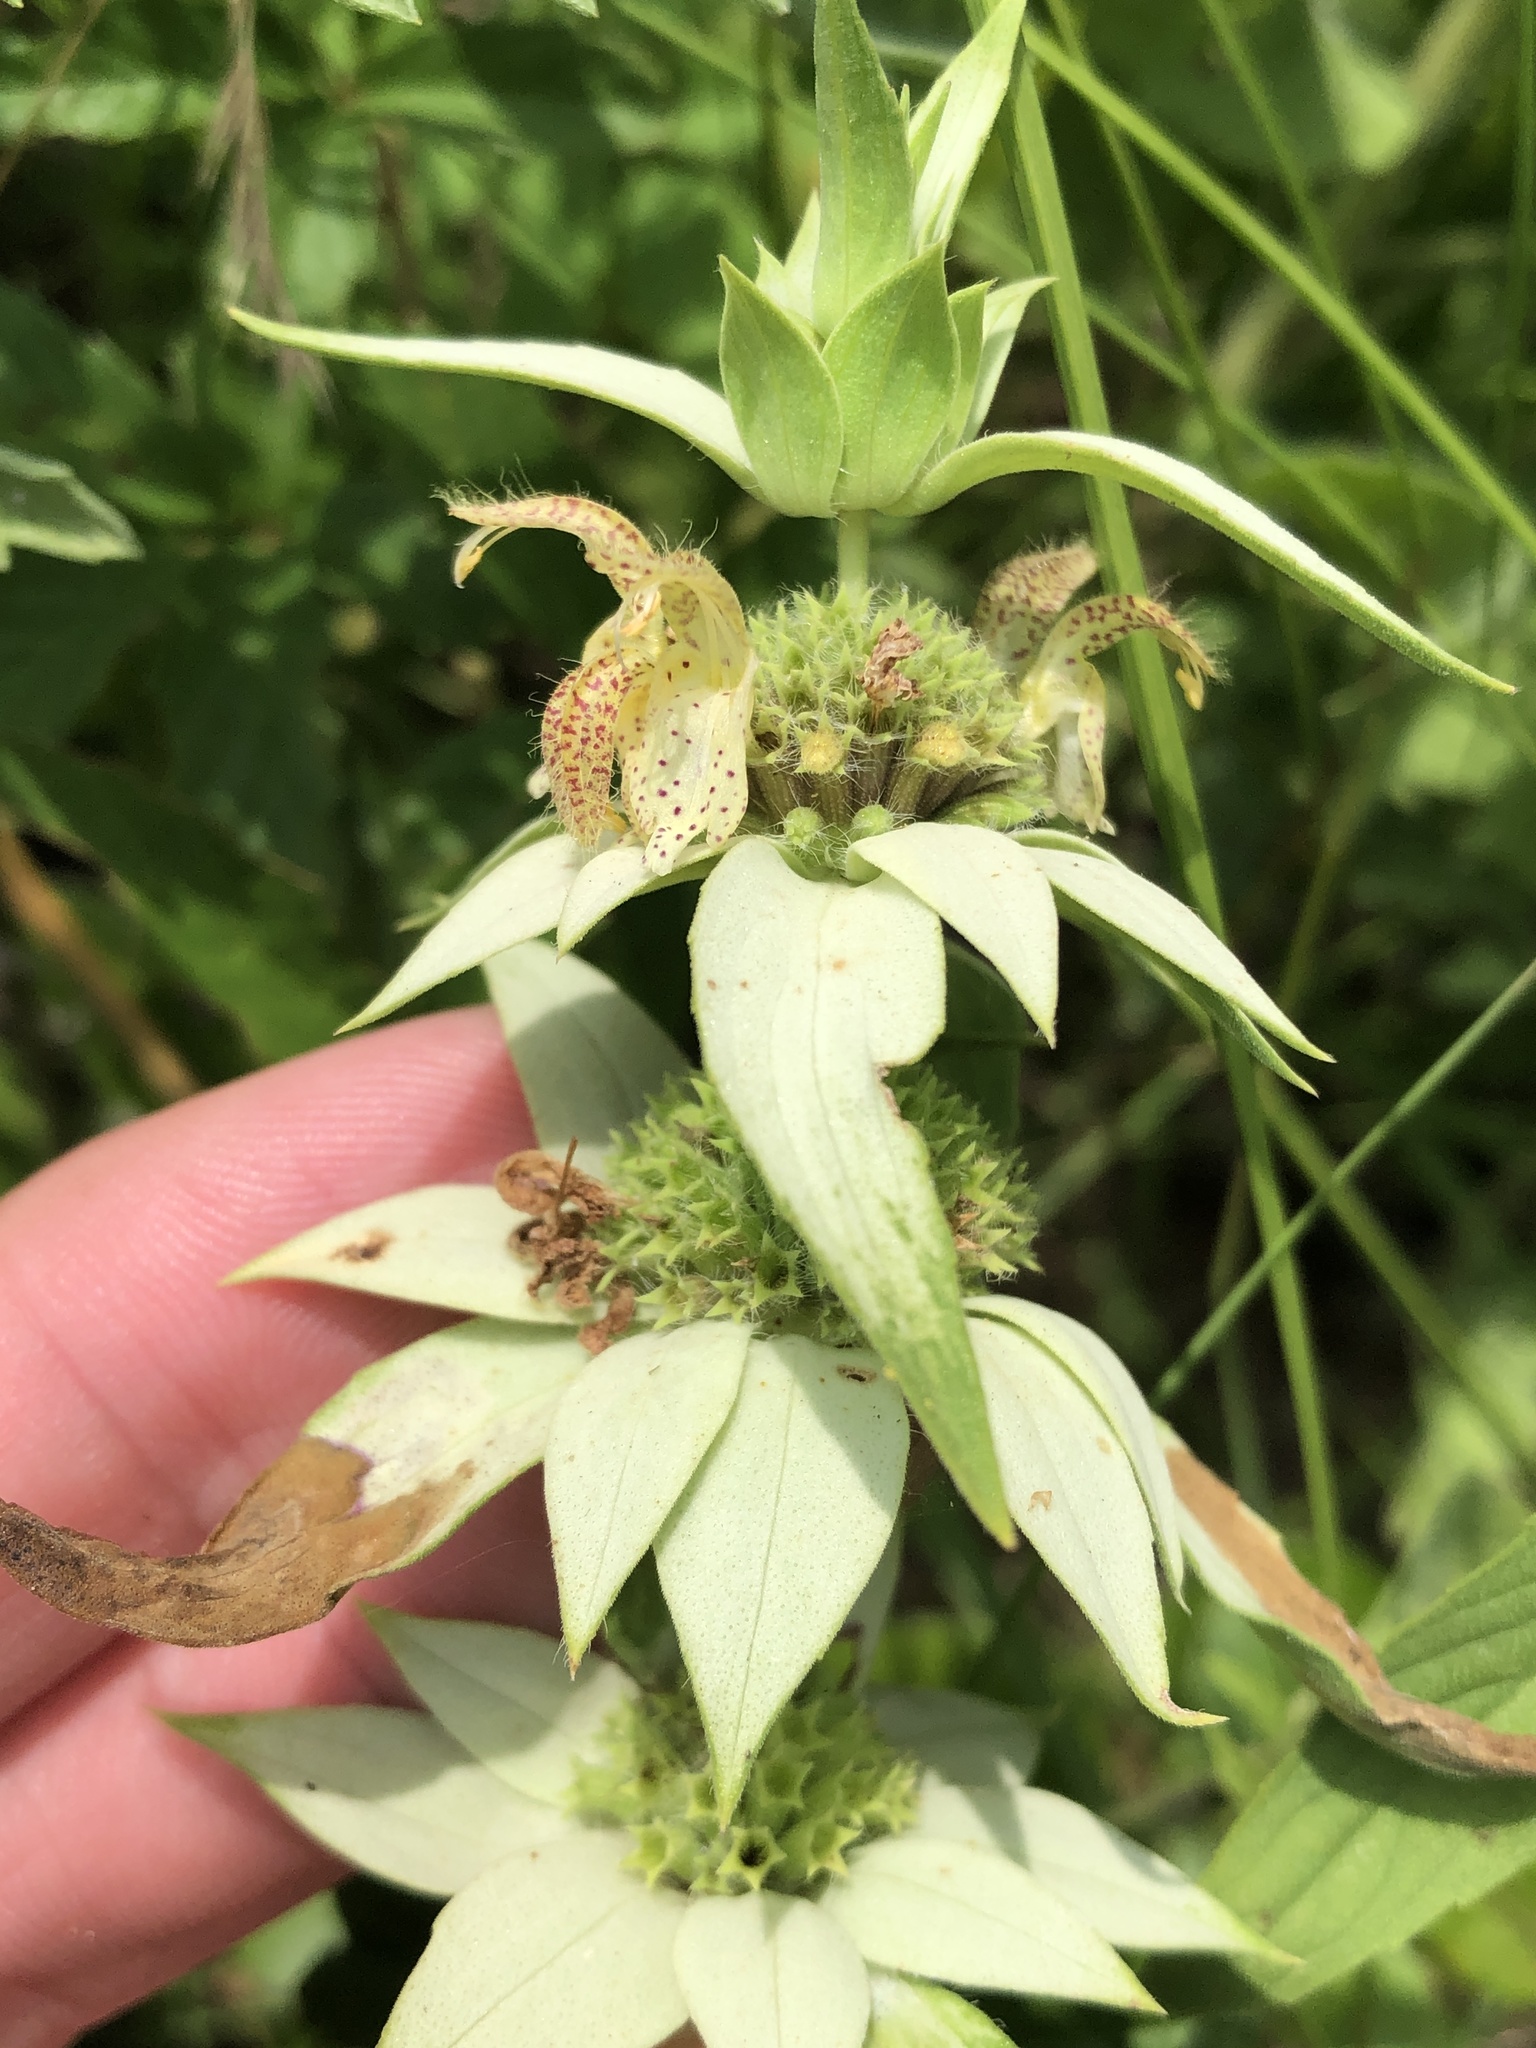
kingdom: Plantae
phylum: Tracheophyta
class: Magnoliopsida
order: Lamiales
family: Lamiaceae
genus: Monarda
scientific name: Monarda punctata
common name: Dotted monarda
